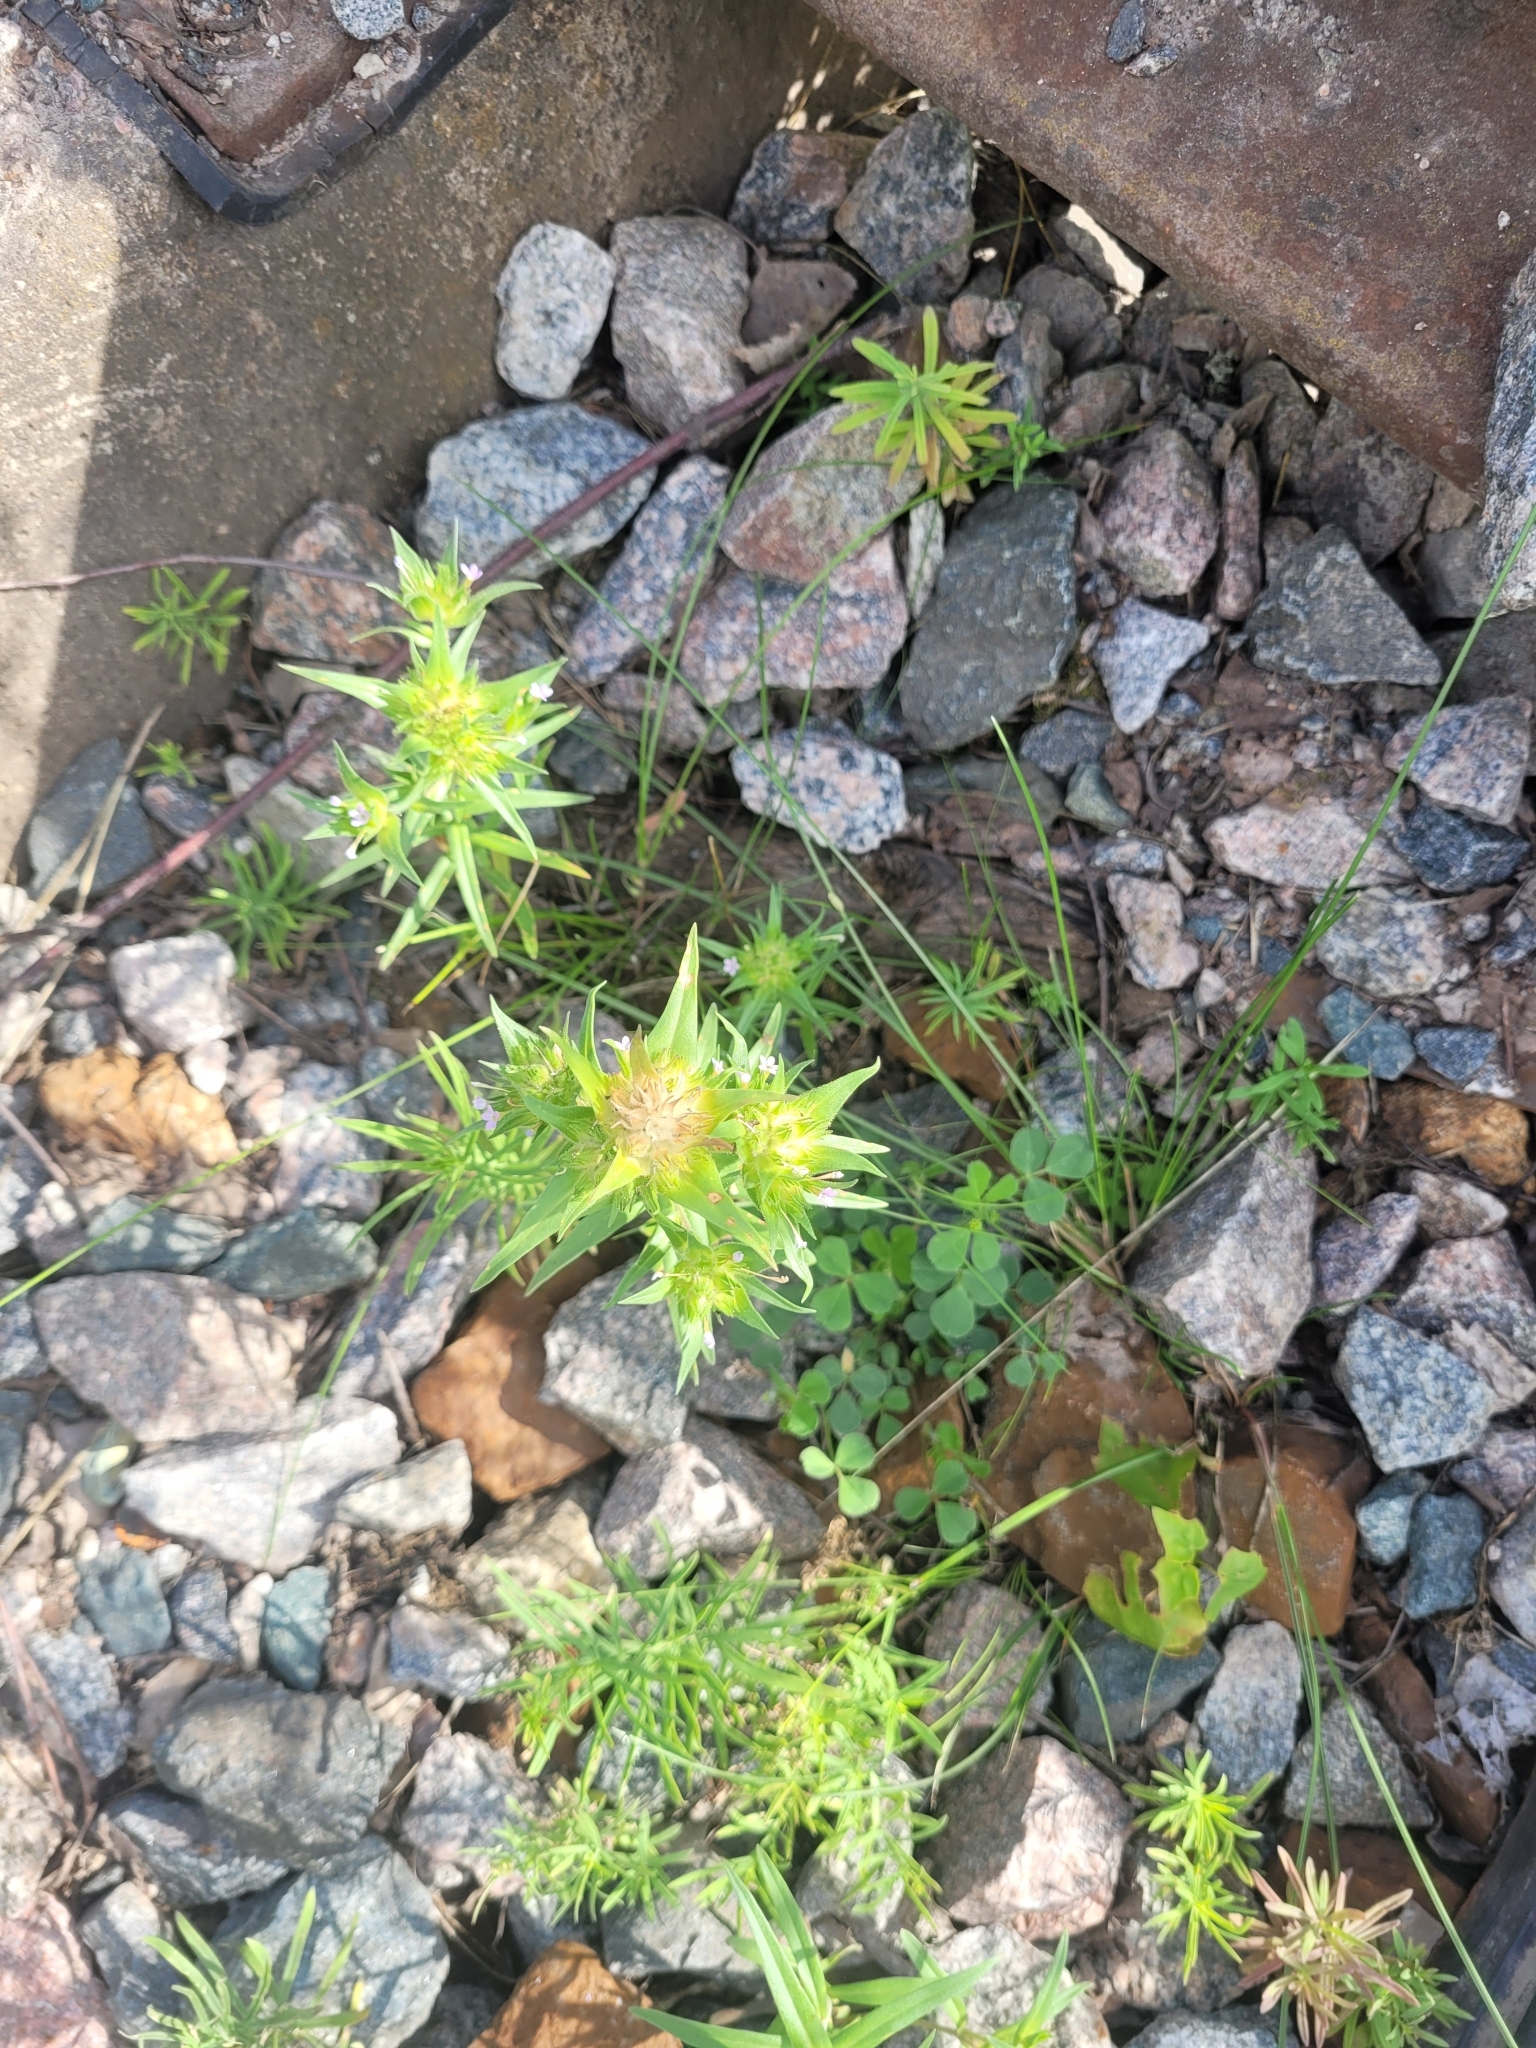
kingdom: Plantae
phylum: Tracheophyta
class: Magnoliopsida
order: Ericales
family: Polemoniaceae
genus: Collomia
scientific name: Collomia linearis
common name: Tiny trumpet
